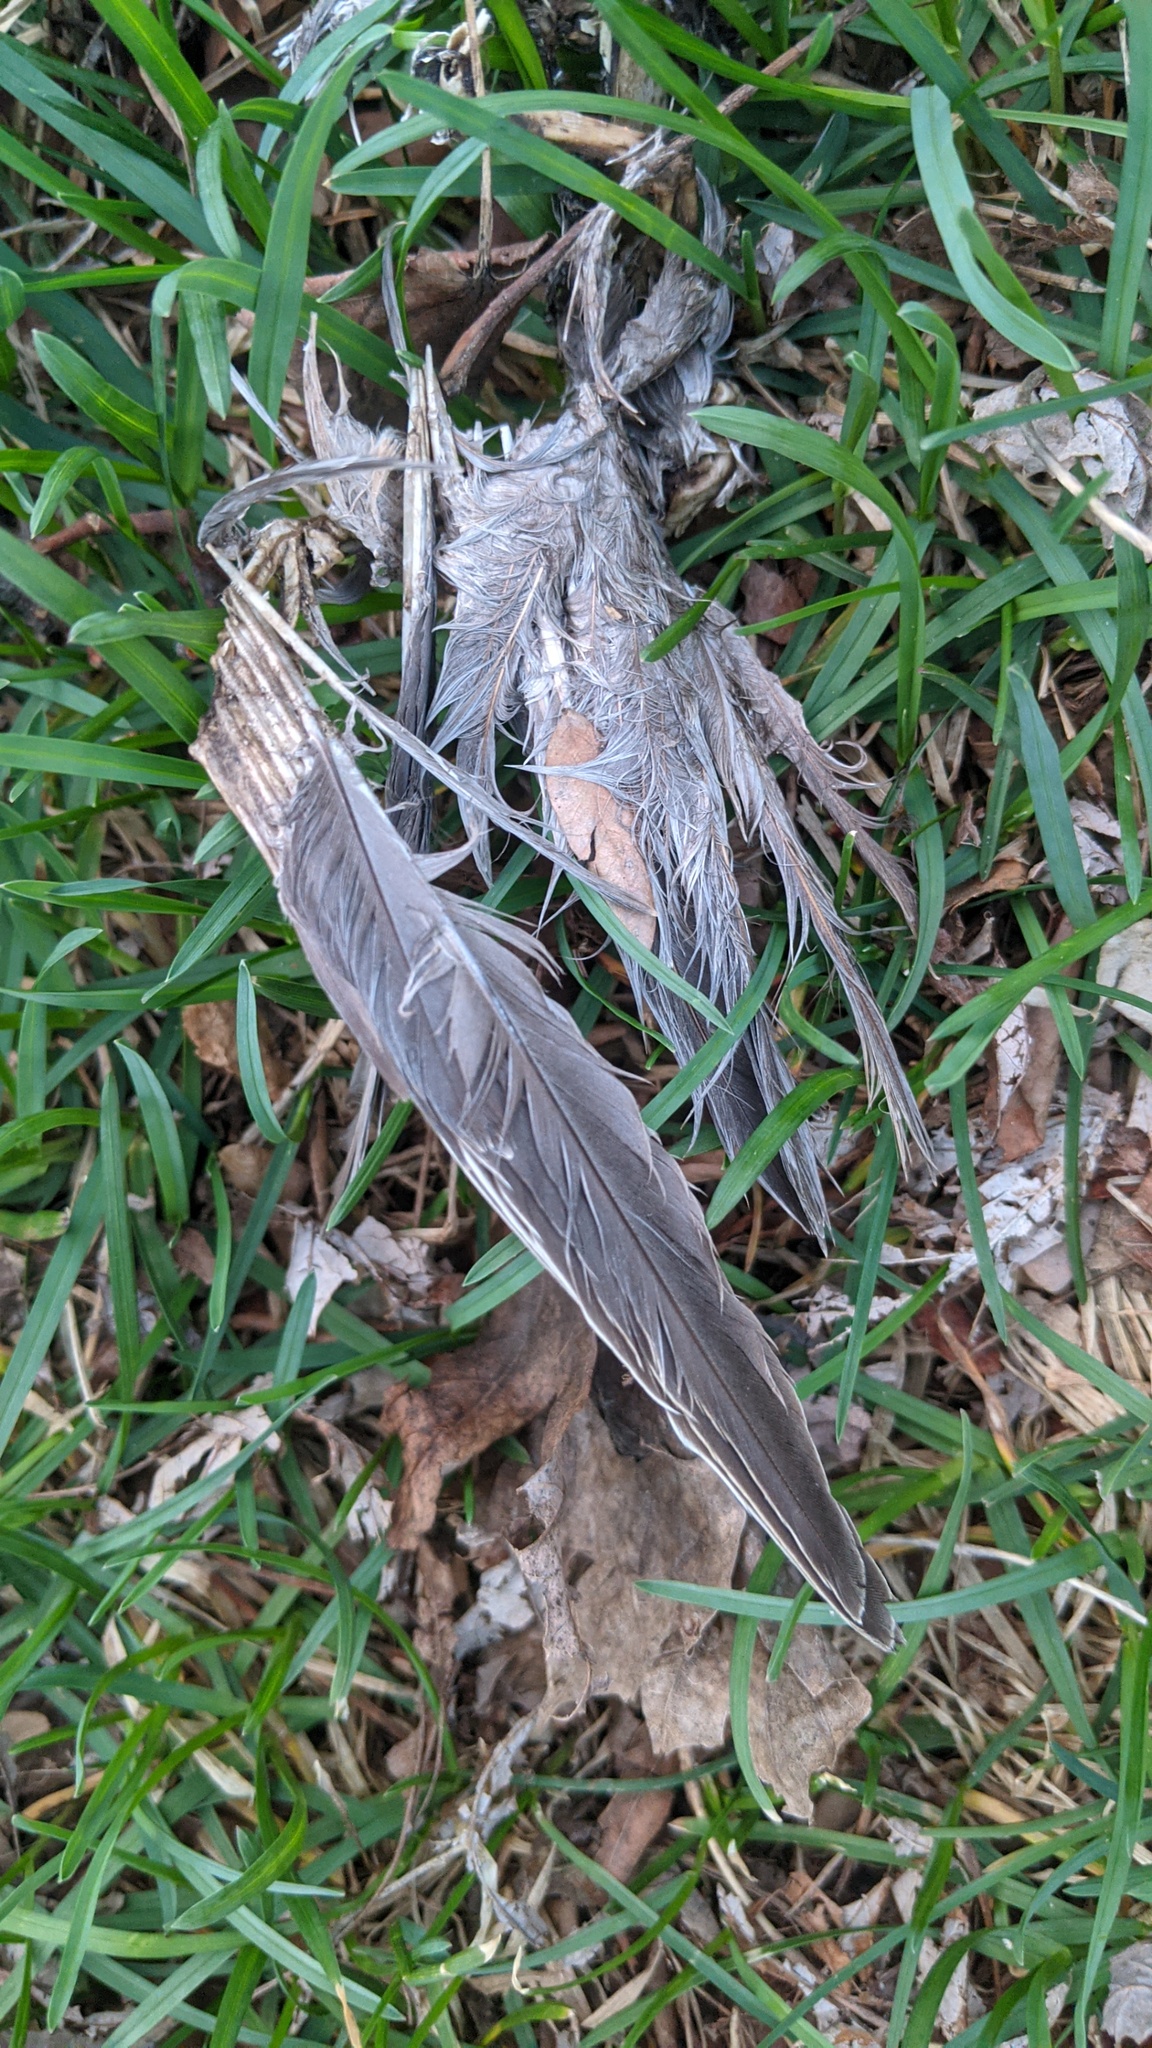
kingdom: Animalia
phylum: Chordata
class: Aves
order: Columbiformes
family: Columbidae
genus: Zenaida
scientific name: Zenaida macroura
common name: Mourning dove
